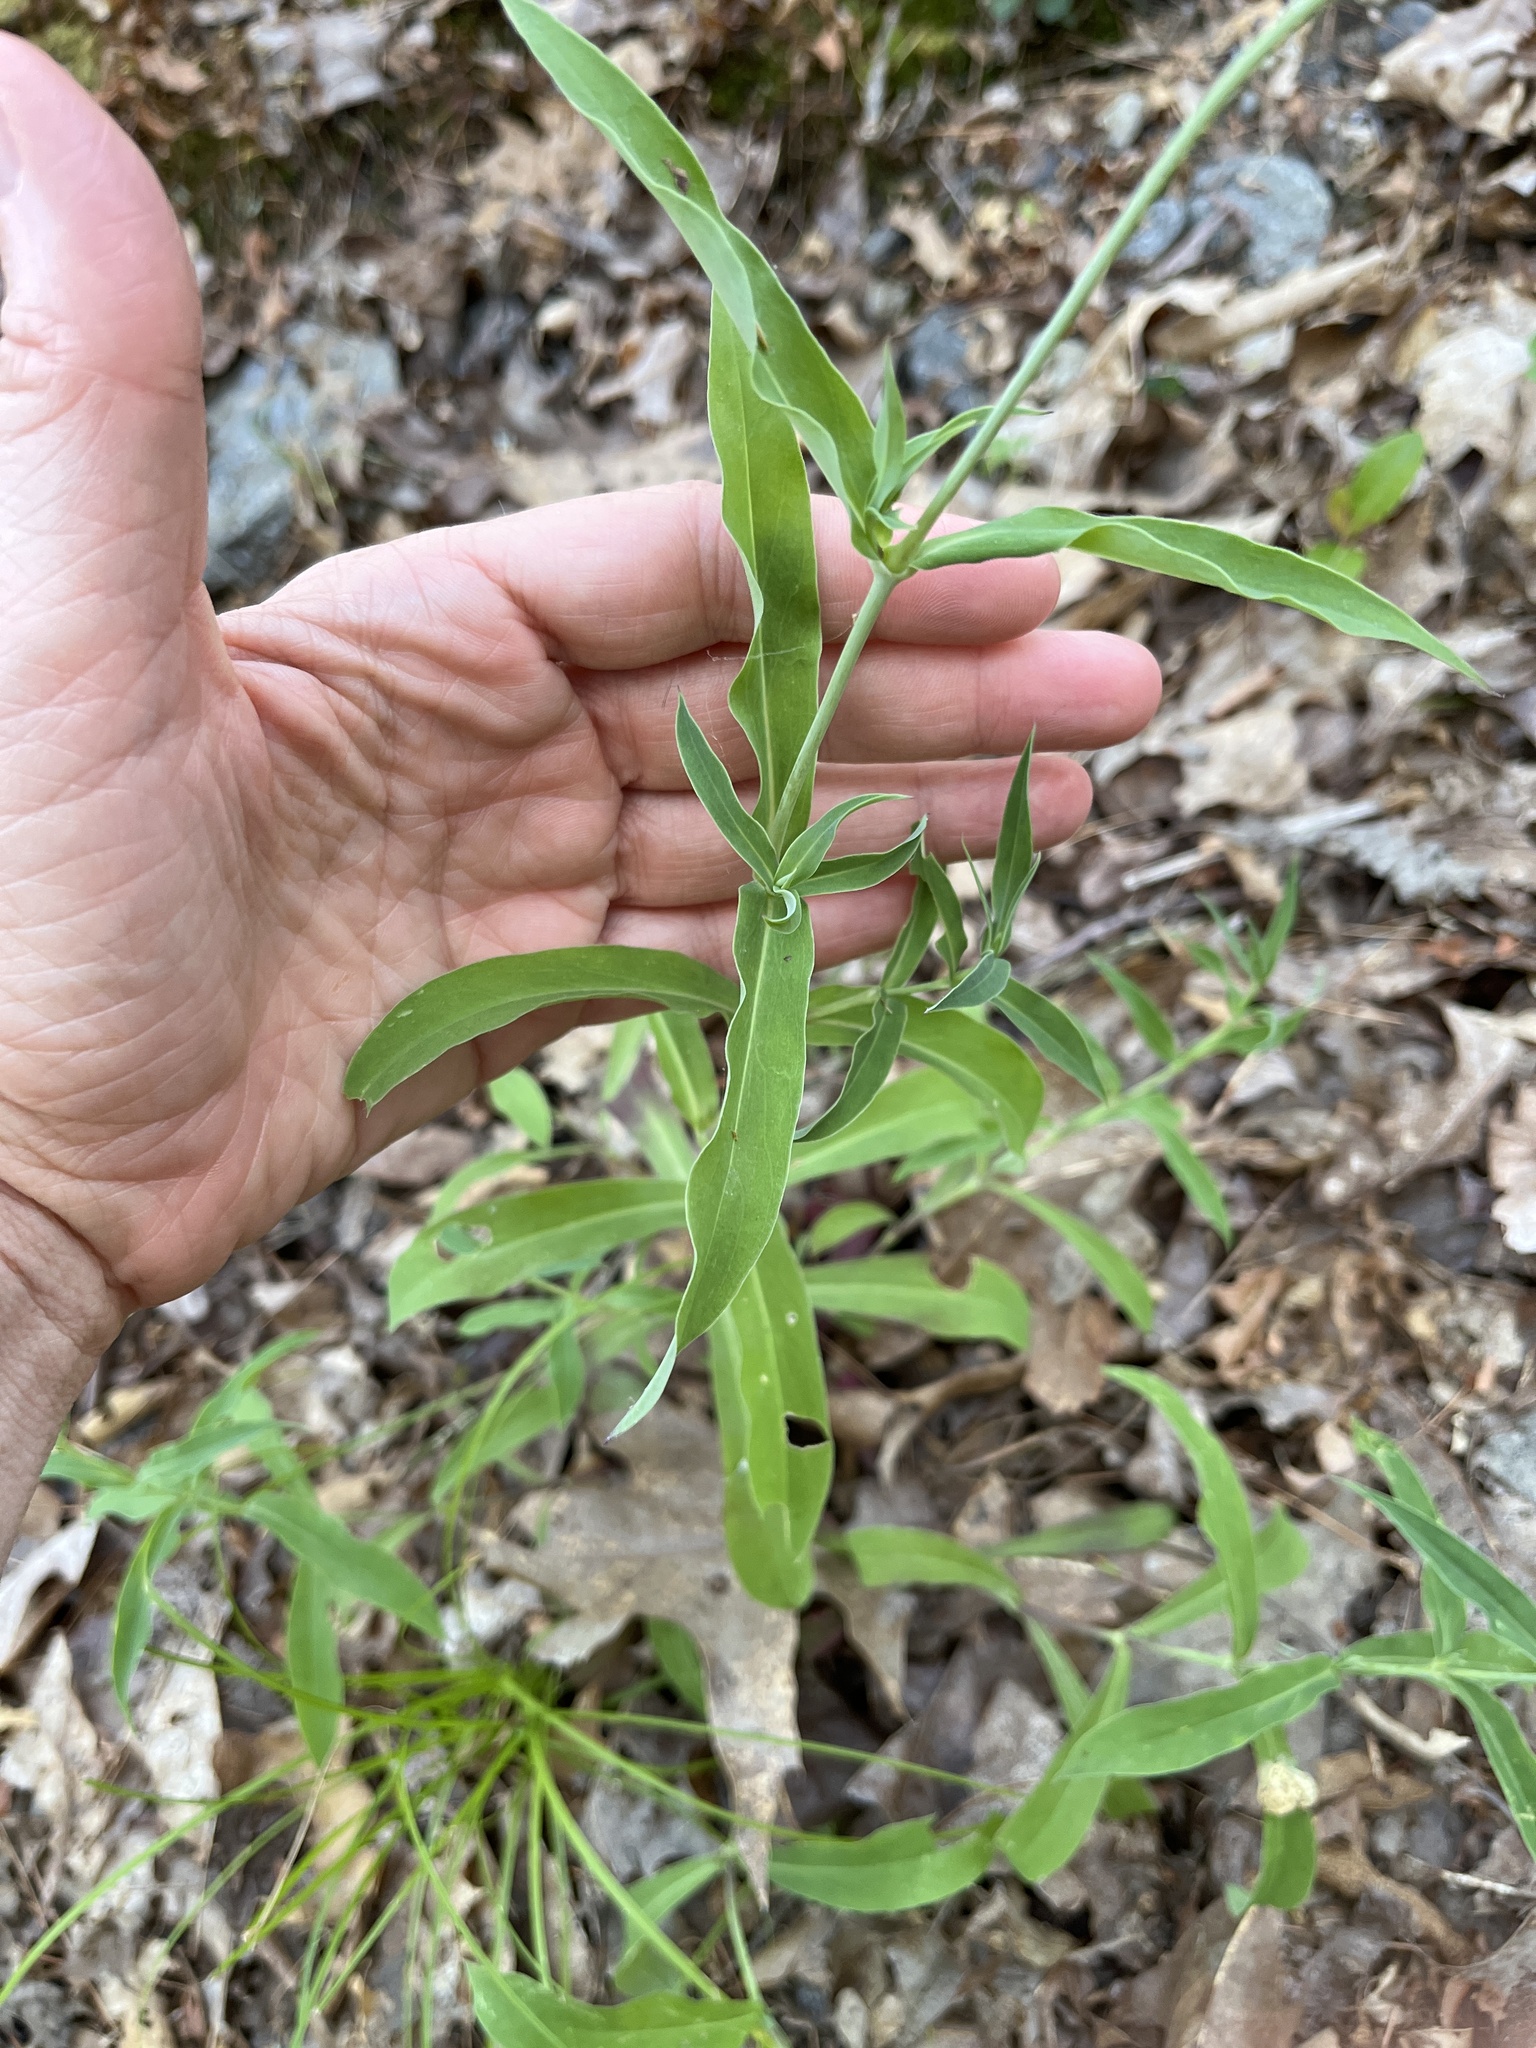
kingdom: Plantae
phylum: Tracheophyta
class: Magnoliopsida
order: Caryophyllales
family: Caryophyllaceae
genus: Silene
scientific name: Silene vulgaris
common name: Bladder campion
